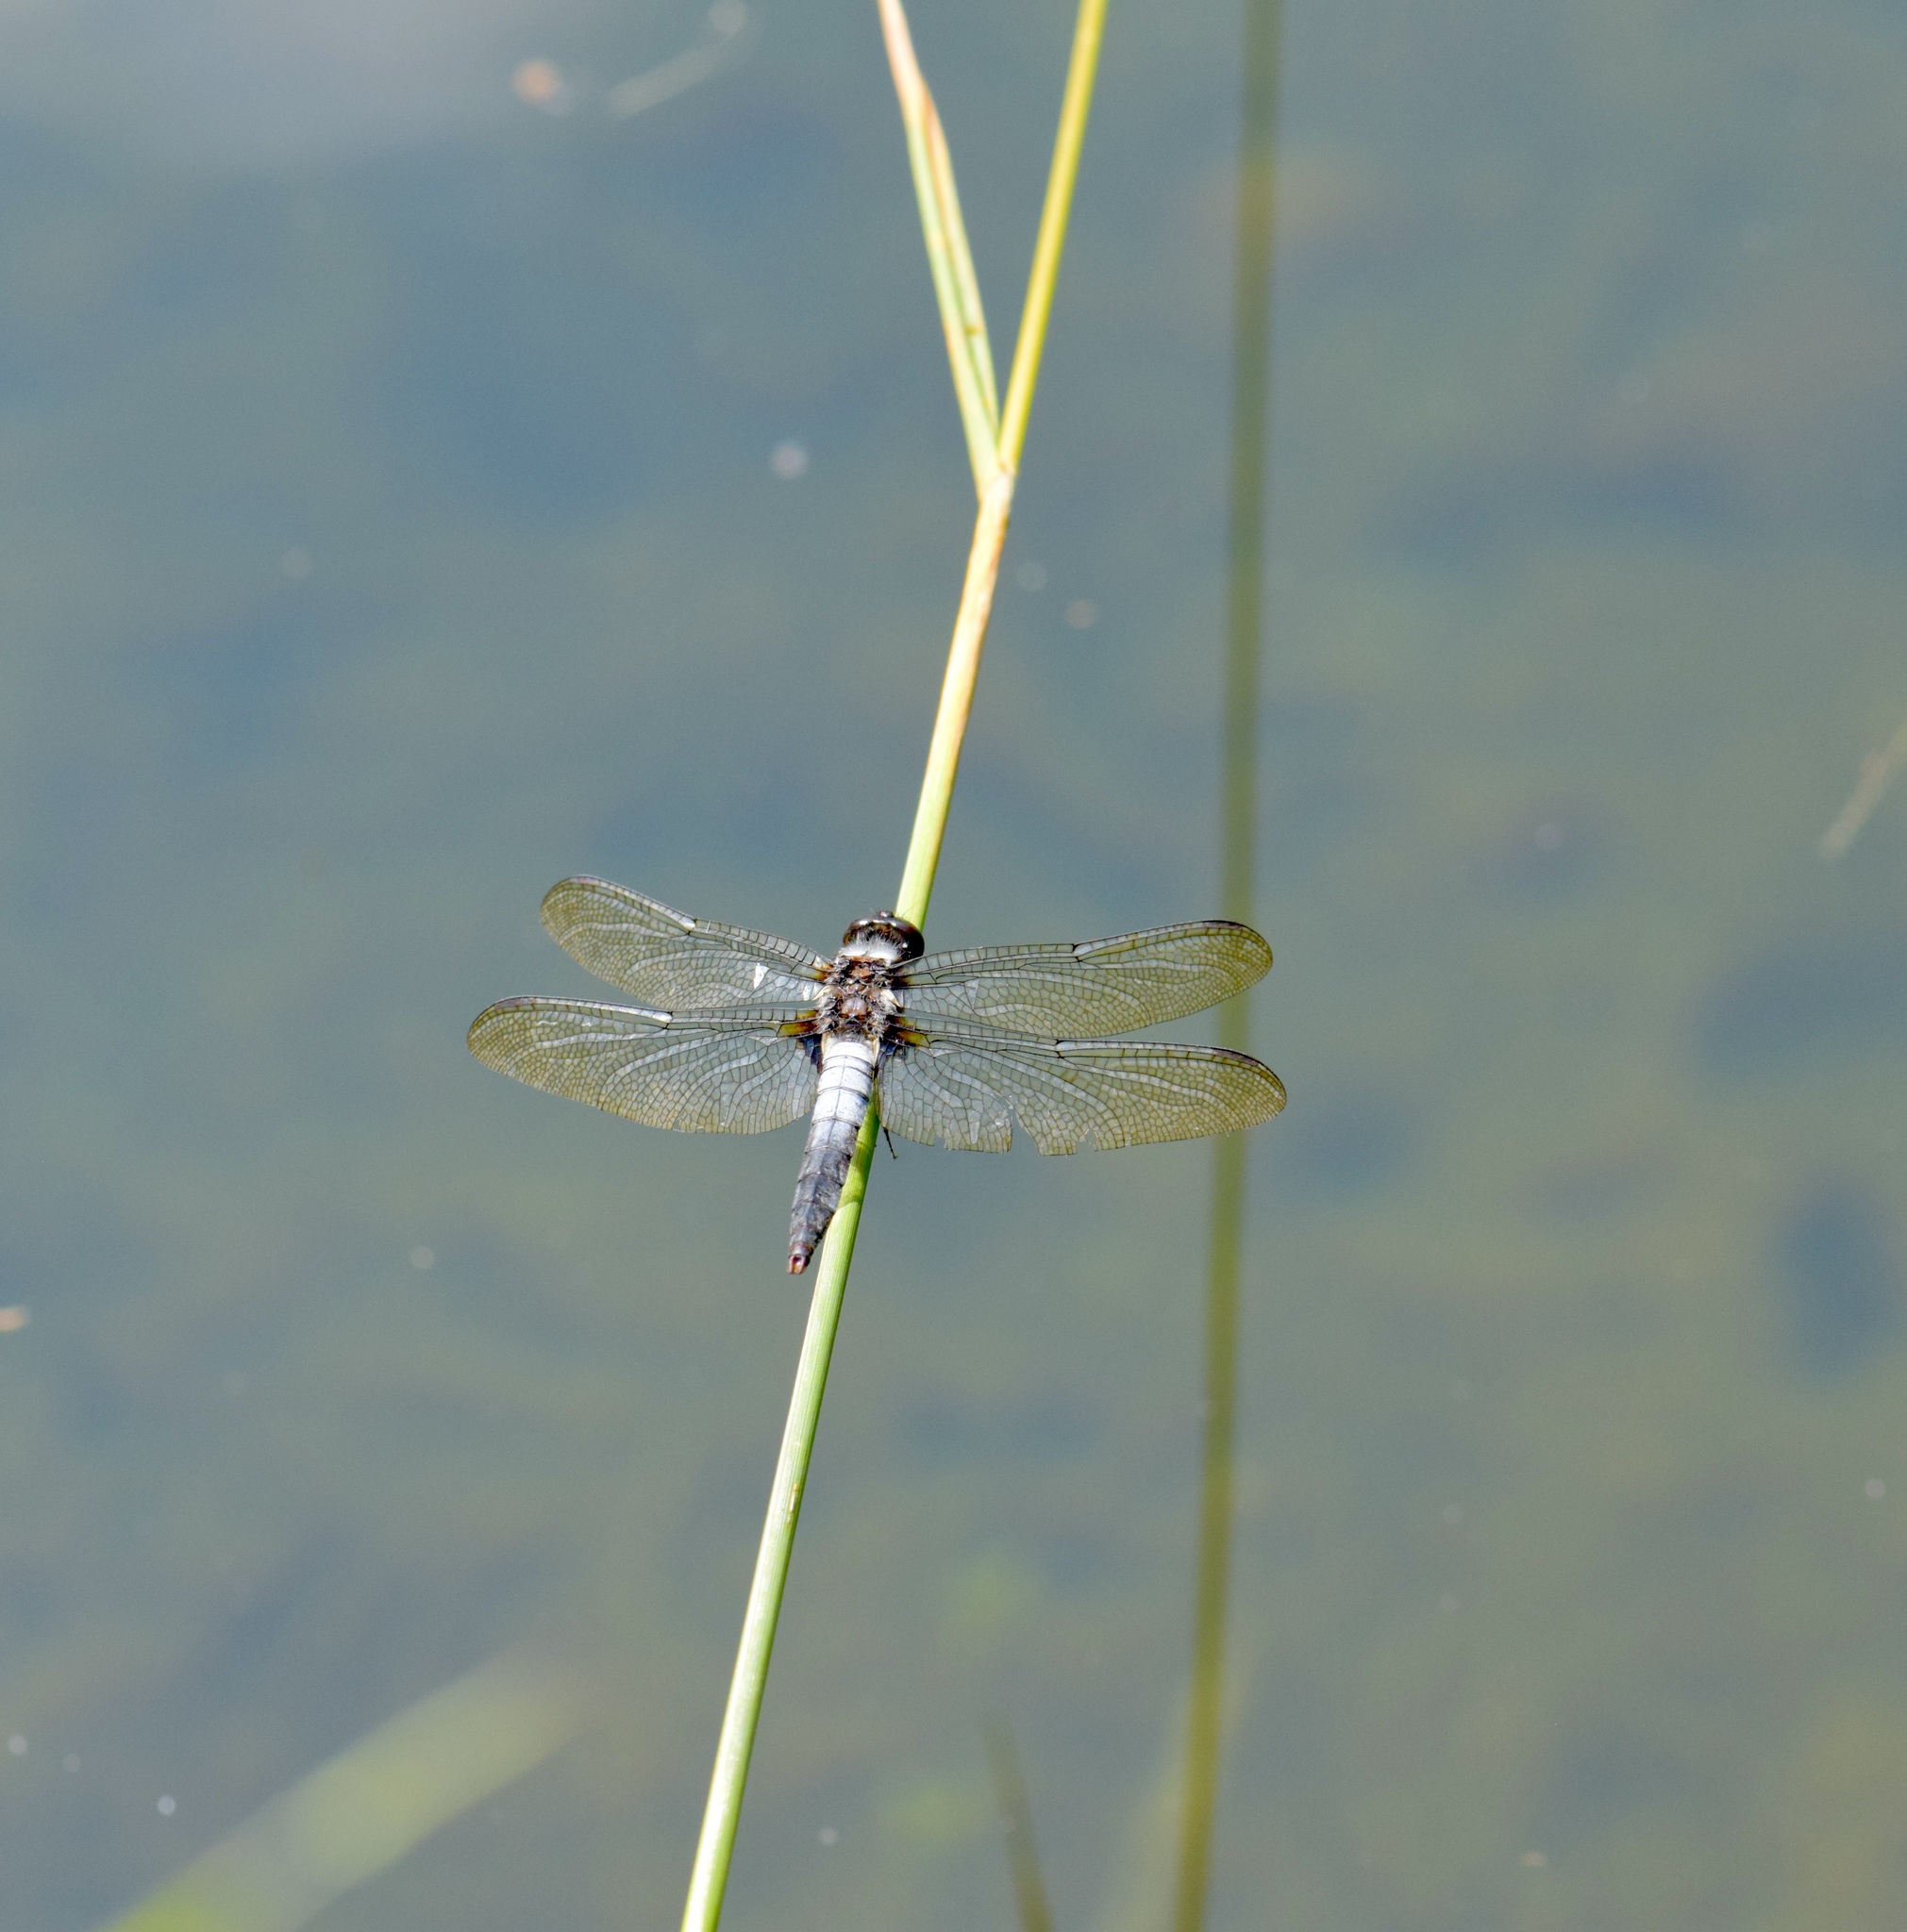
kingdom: Animalia
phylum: Arthropoda
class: Insecta
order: Odonata
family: Libellulidae
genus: Ladona
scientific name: Ladona julia
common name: Chalk-fronted corporal
